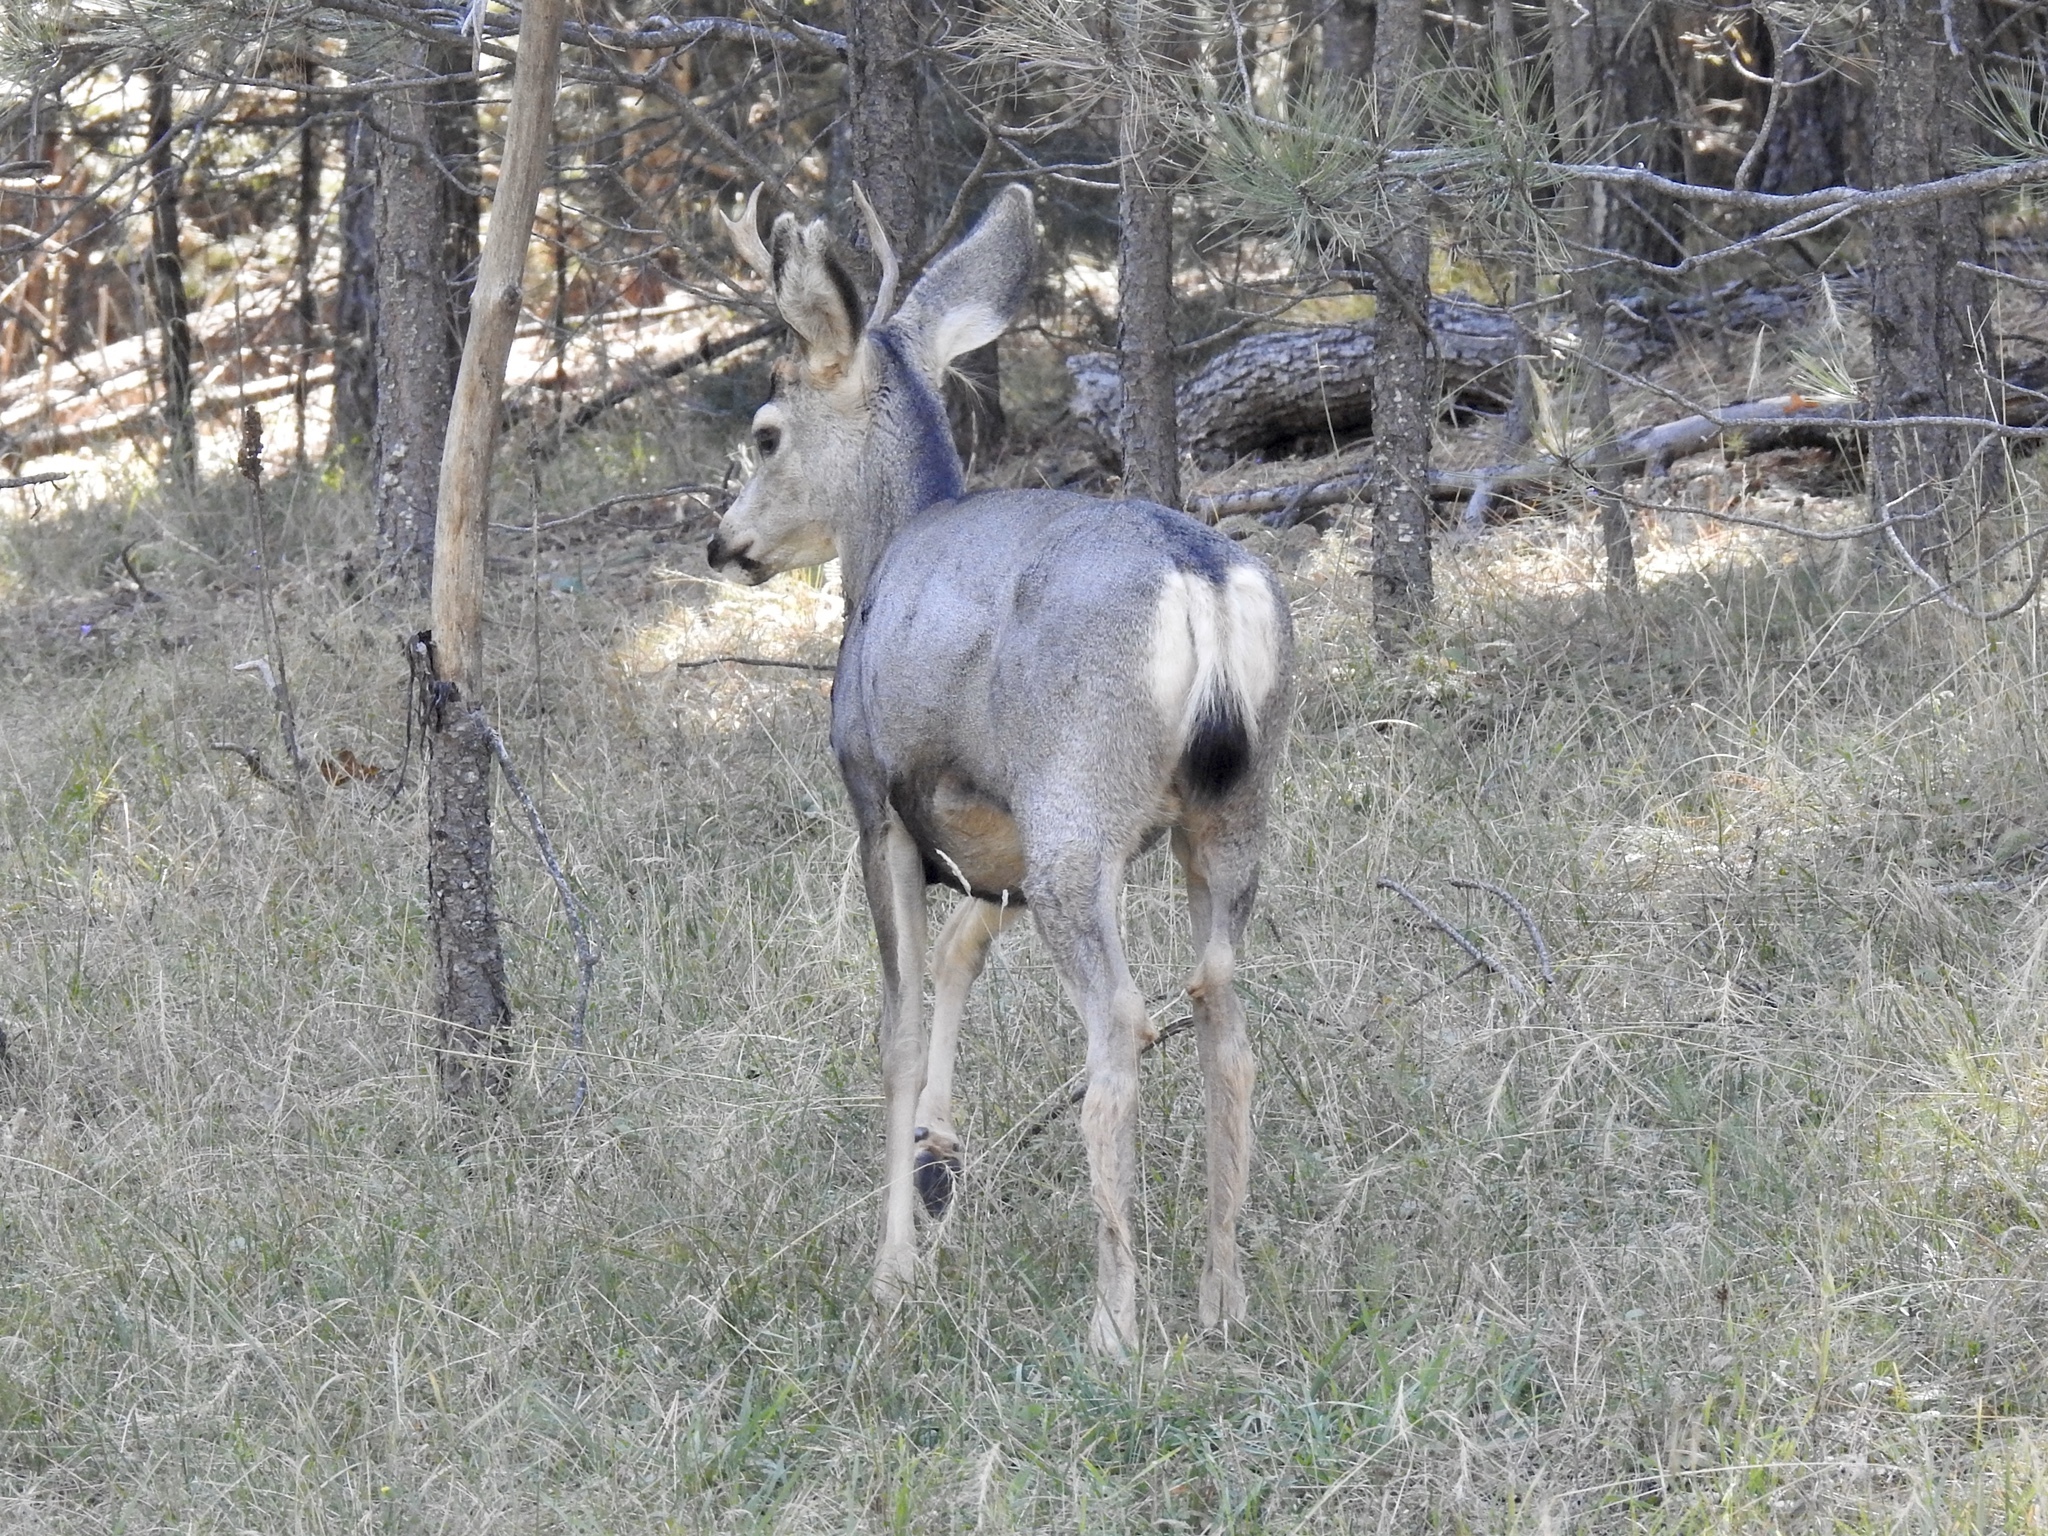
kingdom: Animalia
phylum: Chordata
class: Mammalia
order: Artiodactyla
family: Cervidae
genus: Odocoileus
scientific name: Odocoileus hemionus
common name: Mule deer
